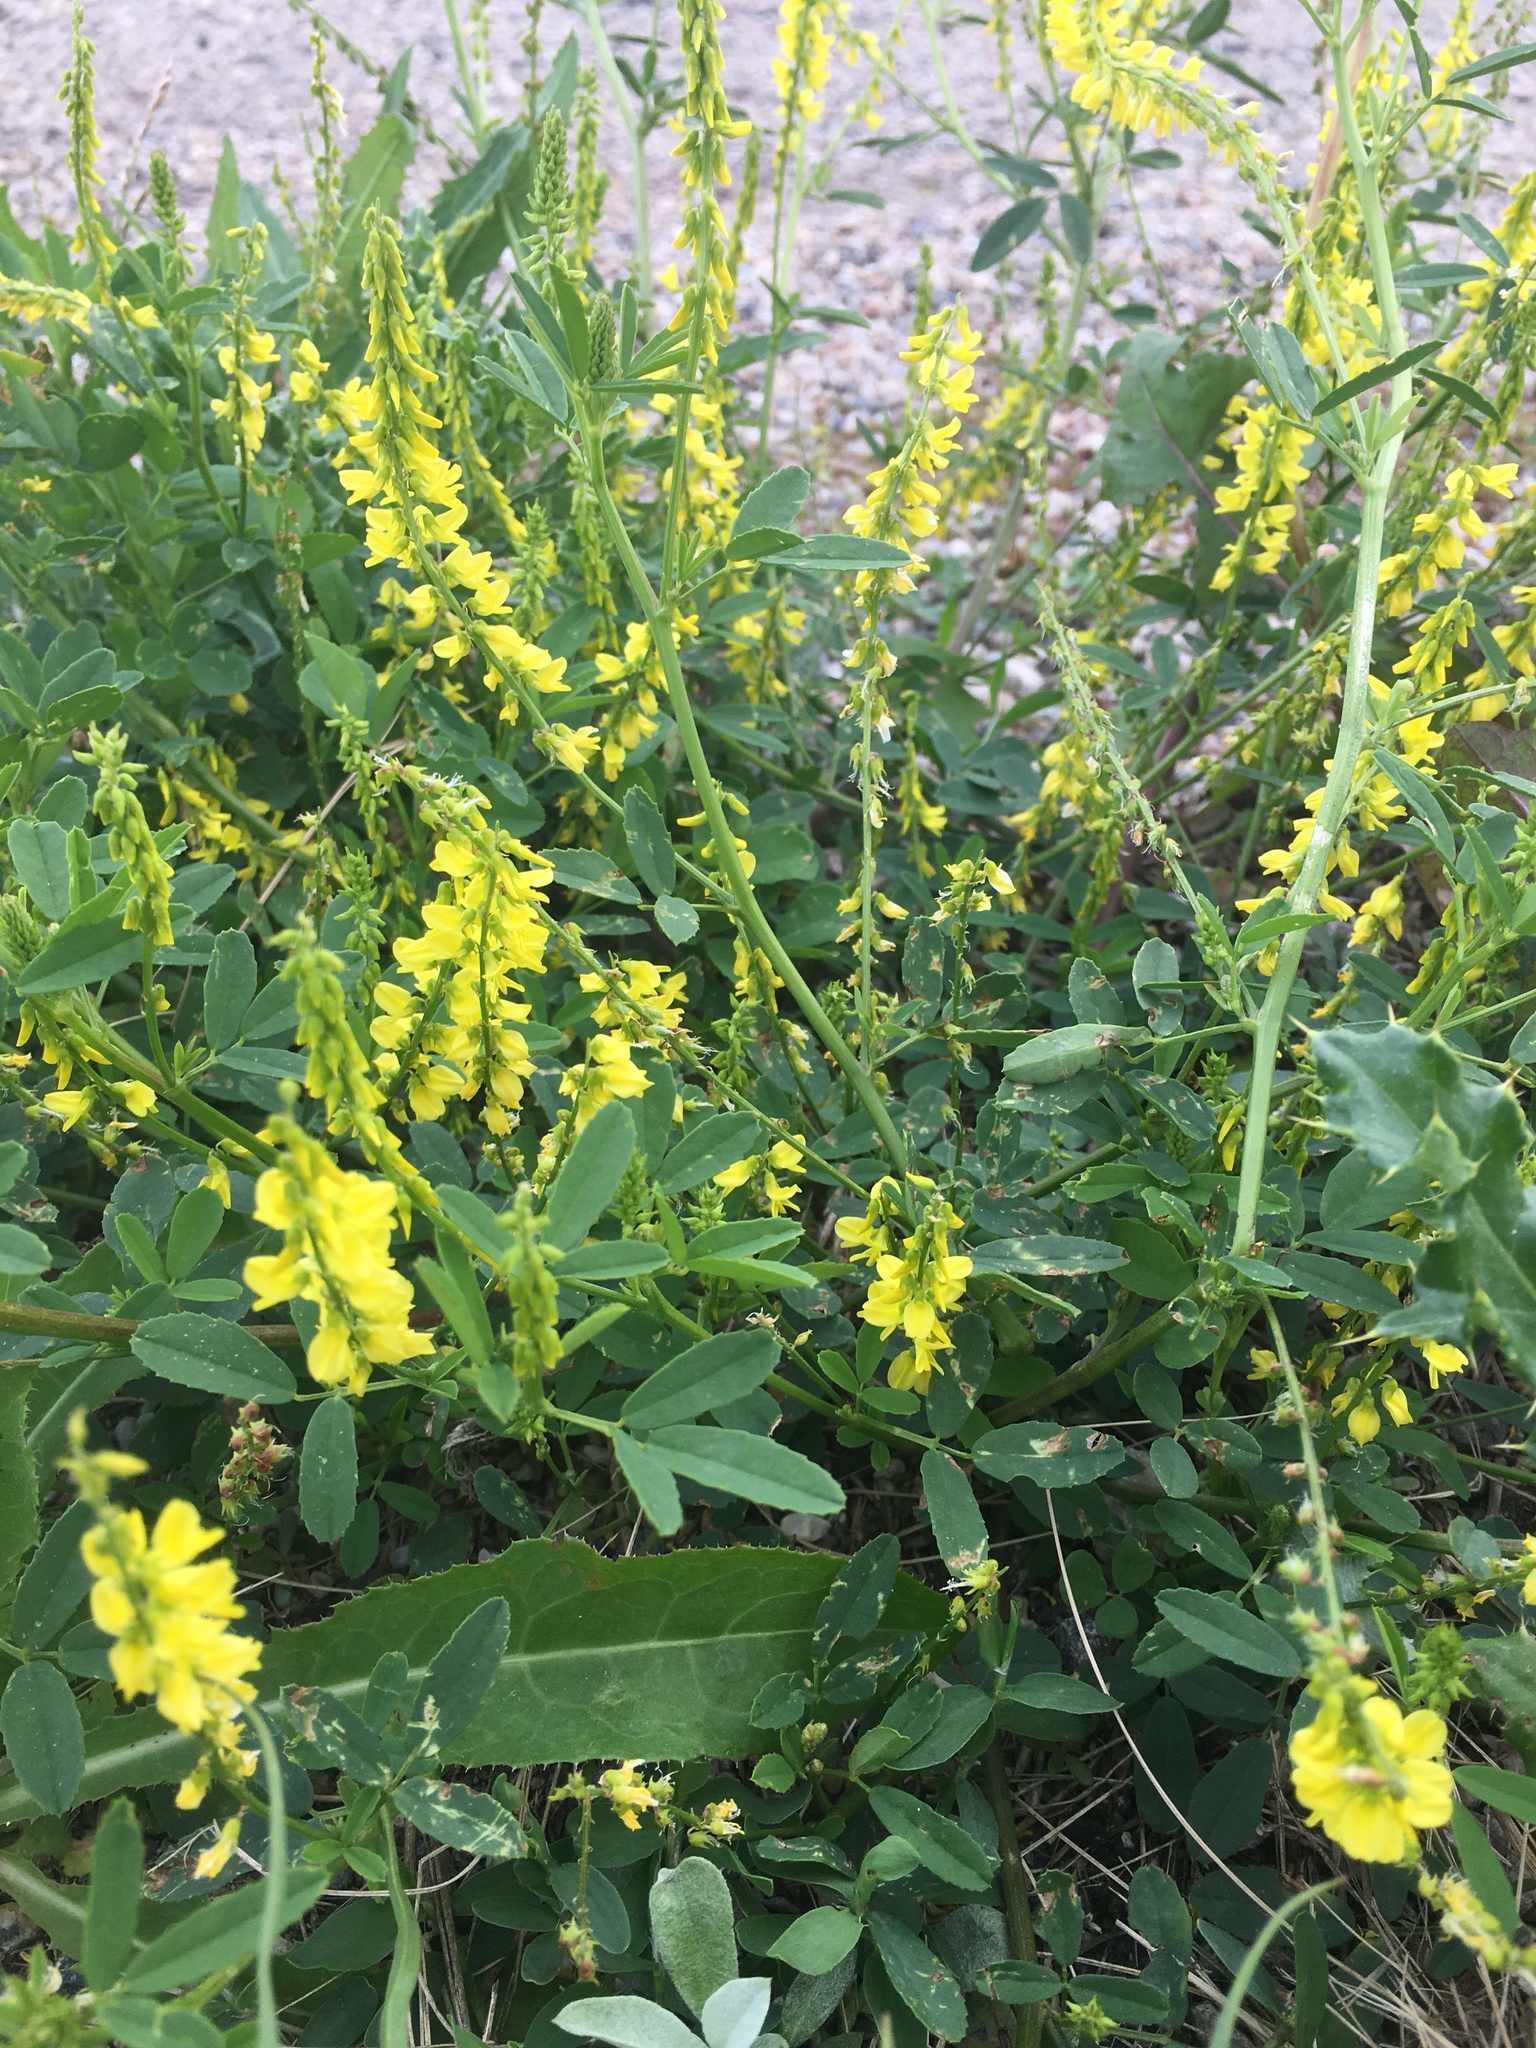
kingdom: Plantae
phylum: Tracheophyta
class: Magnoliopsida
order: Fabales
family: Fabaceae
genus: Melilotus
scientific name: Melilotus officinalis
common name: Sweetclover
